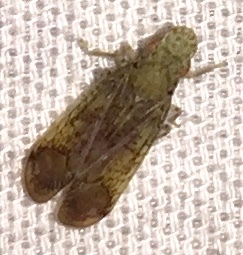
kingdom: Animalia
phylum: Arthropoda
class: Insecta
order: Hemiptera
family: Tropiduchidae
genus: Pelitropis
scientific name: Pelitropis rotulata
